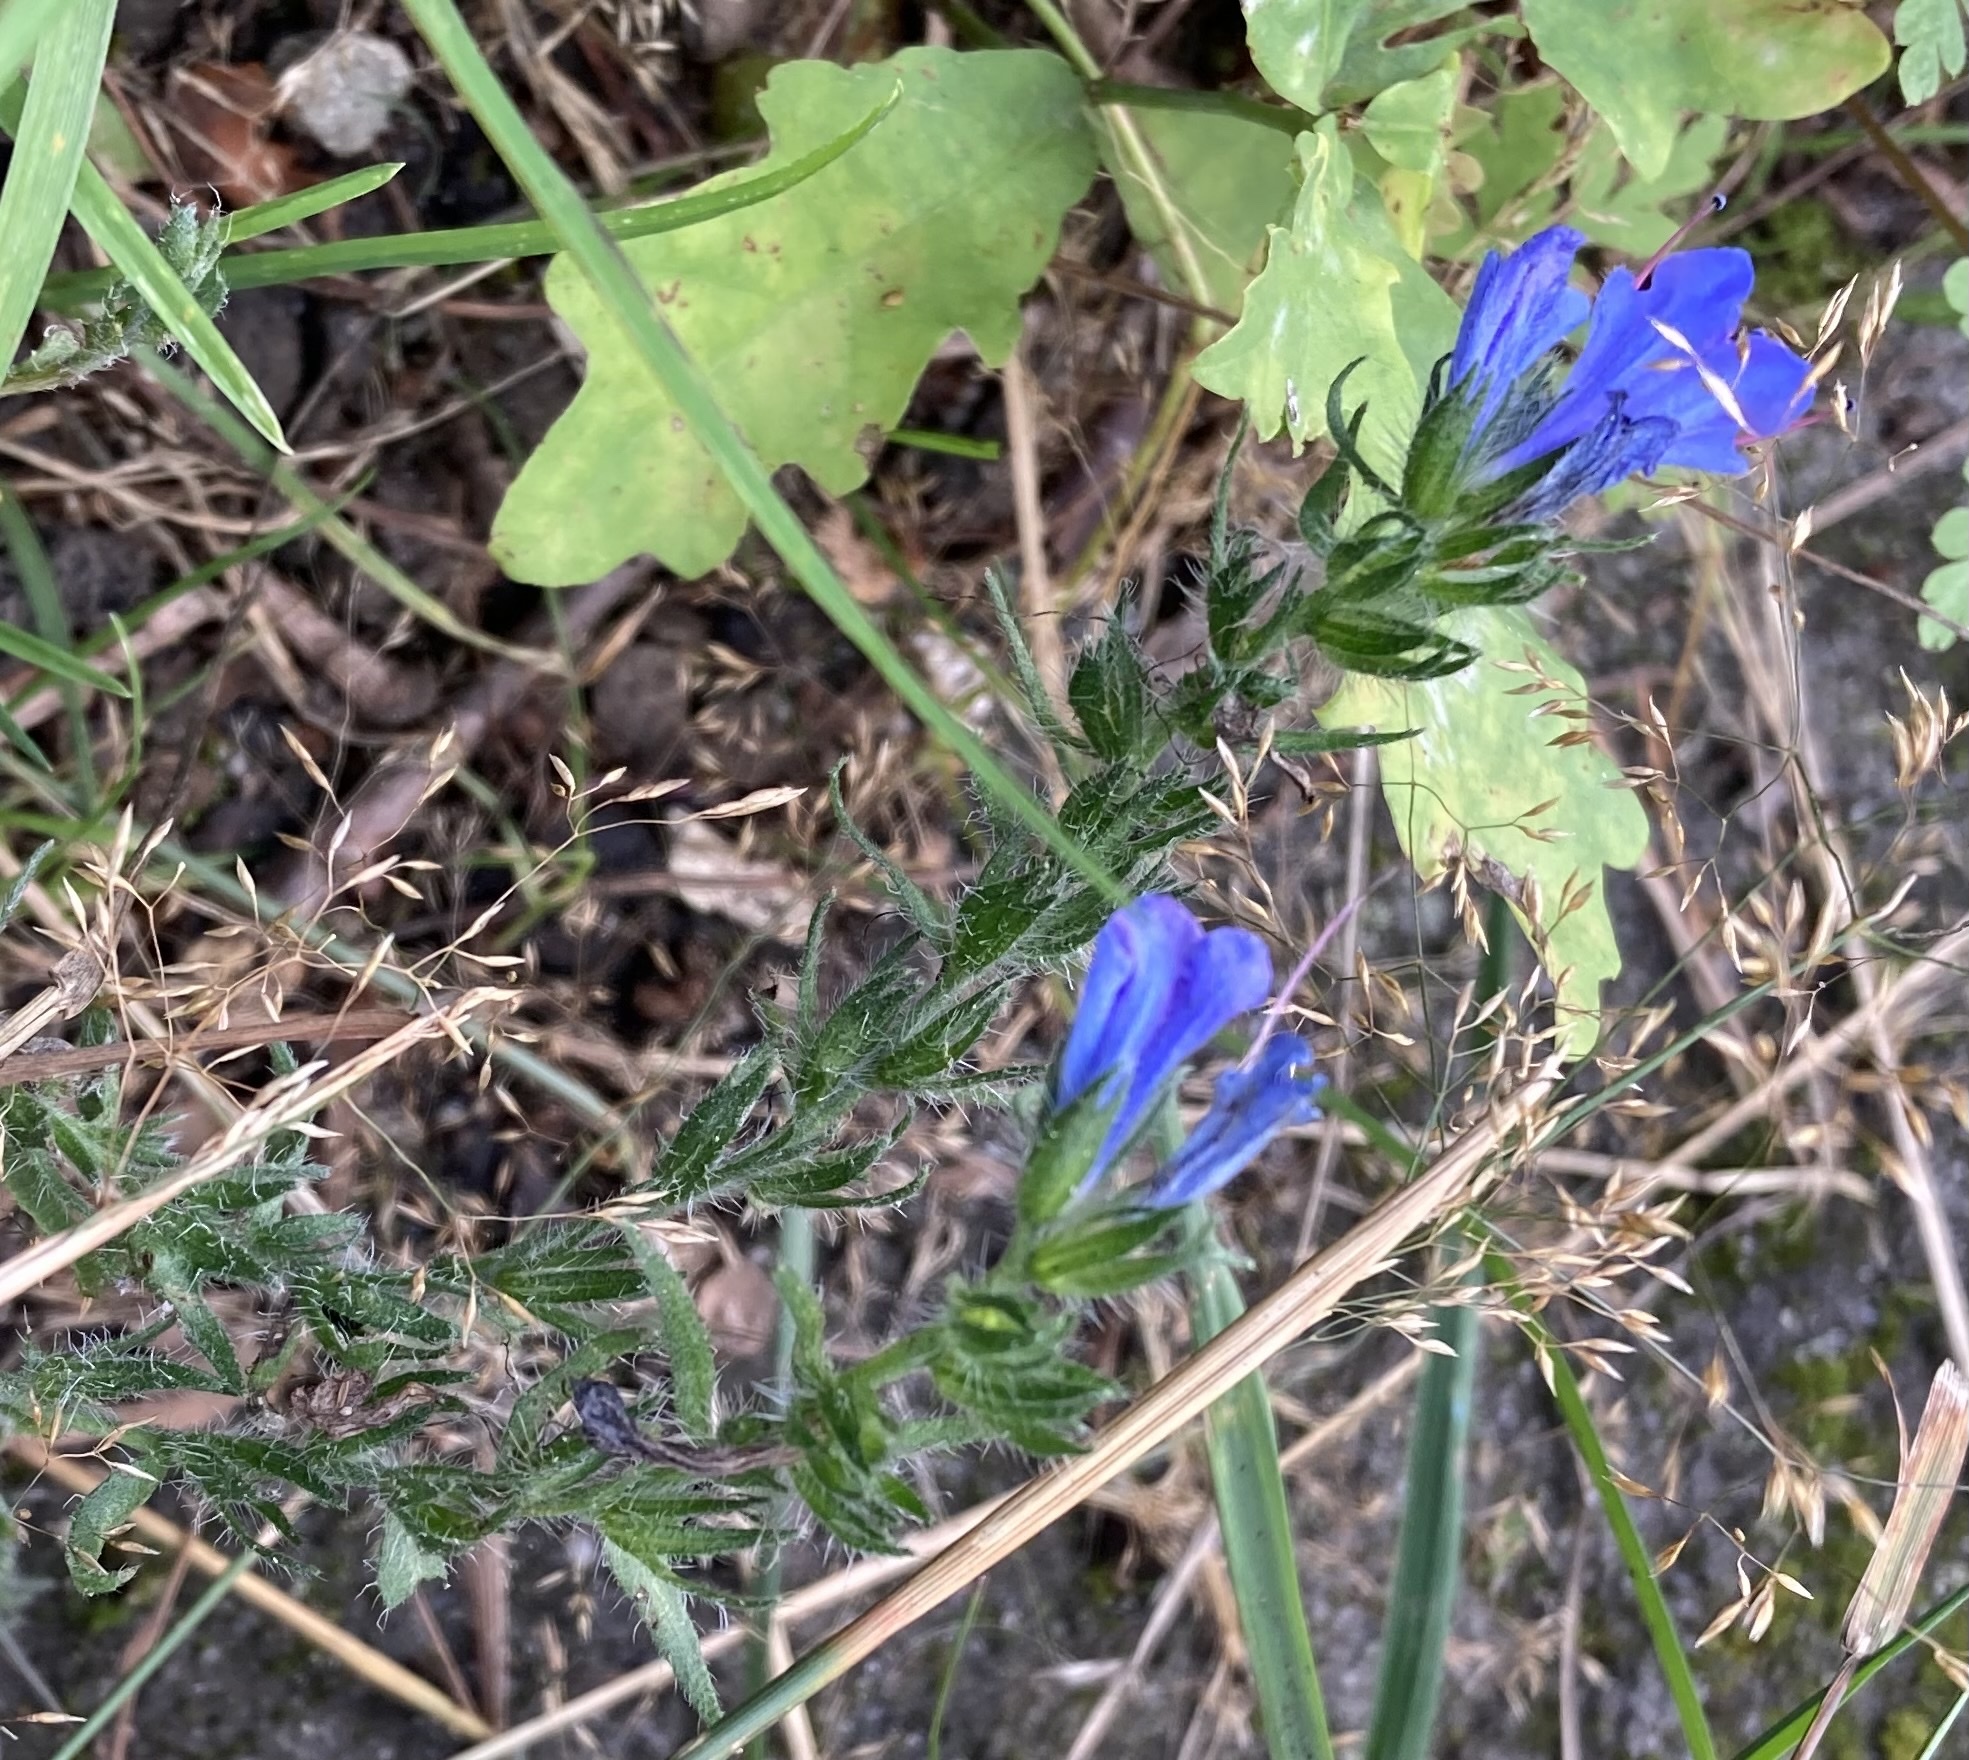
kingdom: Plantae
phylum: Tracheophyta
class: Magnoliopsida
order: Boraginales
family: Boraginaceae
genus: Echium
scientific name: Echium vulgare
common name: Common viper's bugloss
